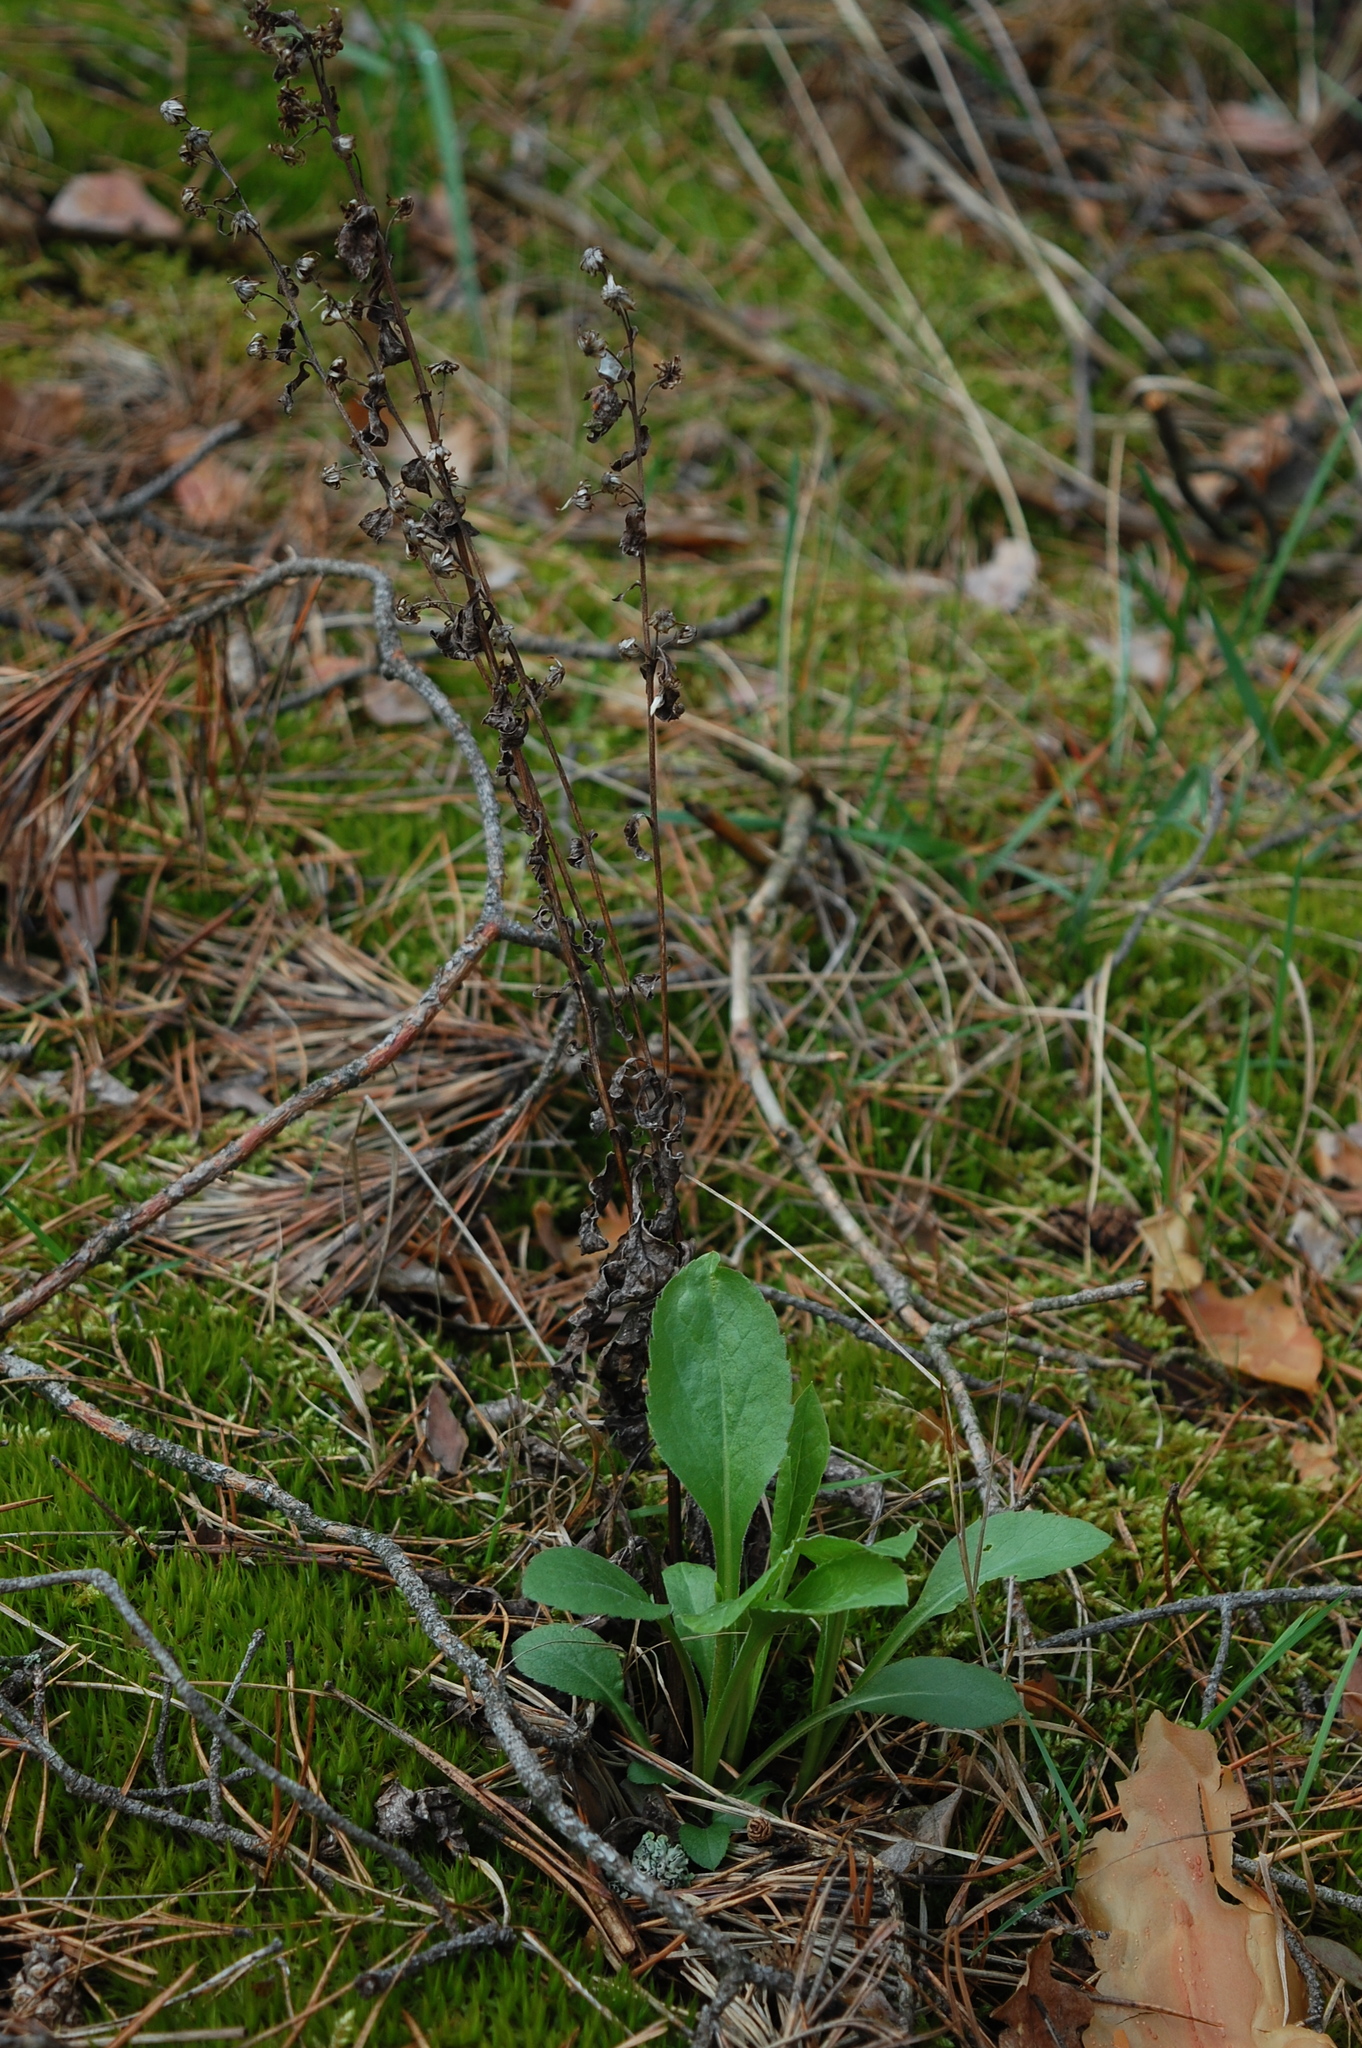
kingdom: Plantae
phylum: Tracheophyta
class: Magnoliopsida
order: Asterales
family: Asteraceae
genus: Solidago
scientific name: Solidago virgaurea
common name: Goldenrod
